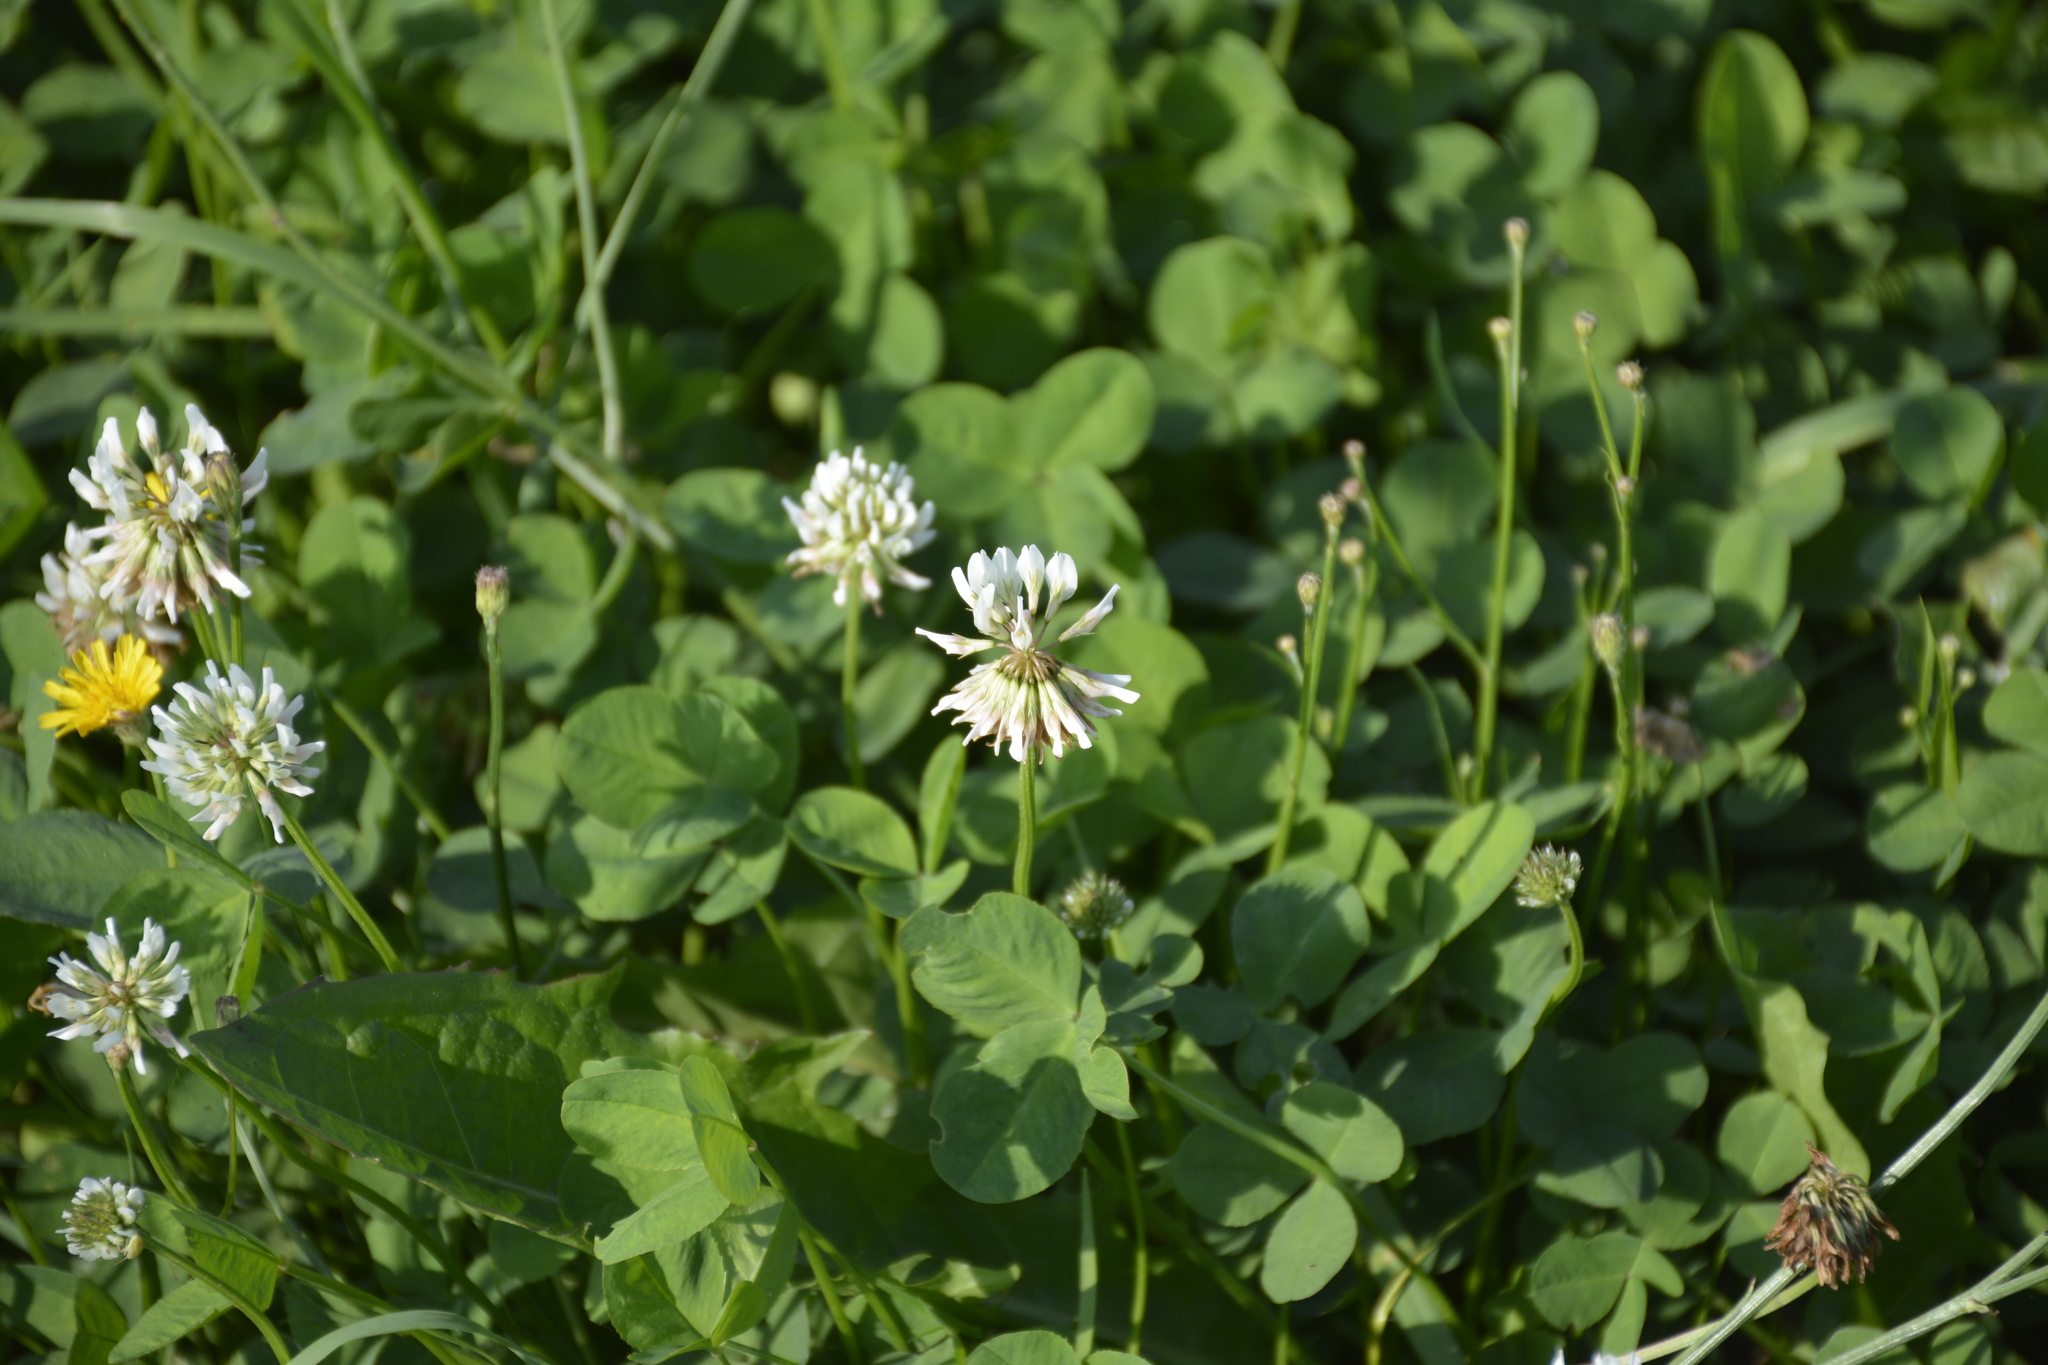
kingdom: Plantae
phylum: Tracheophyta
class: Magnoliopsida
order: Fabales
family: Fabaceae
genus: Trifolium
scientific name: Trifolium repens
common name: White clover
